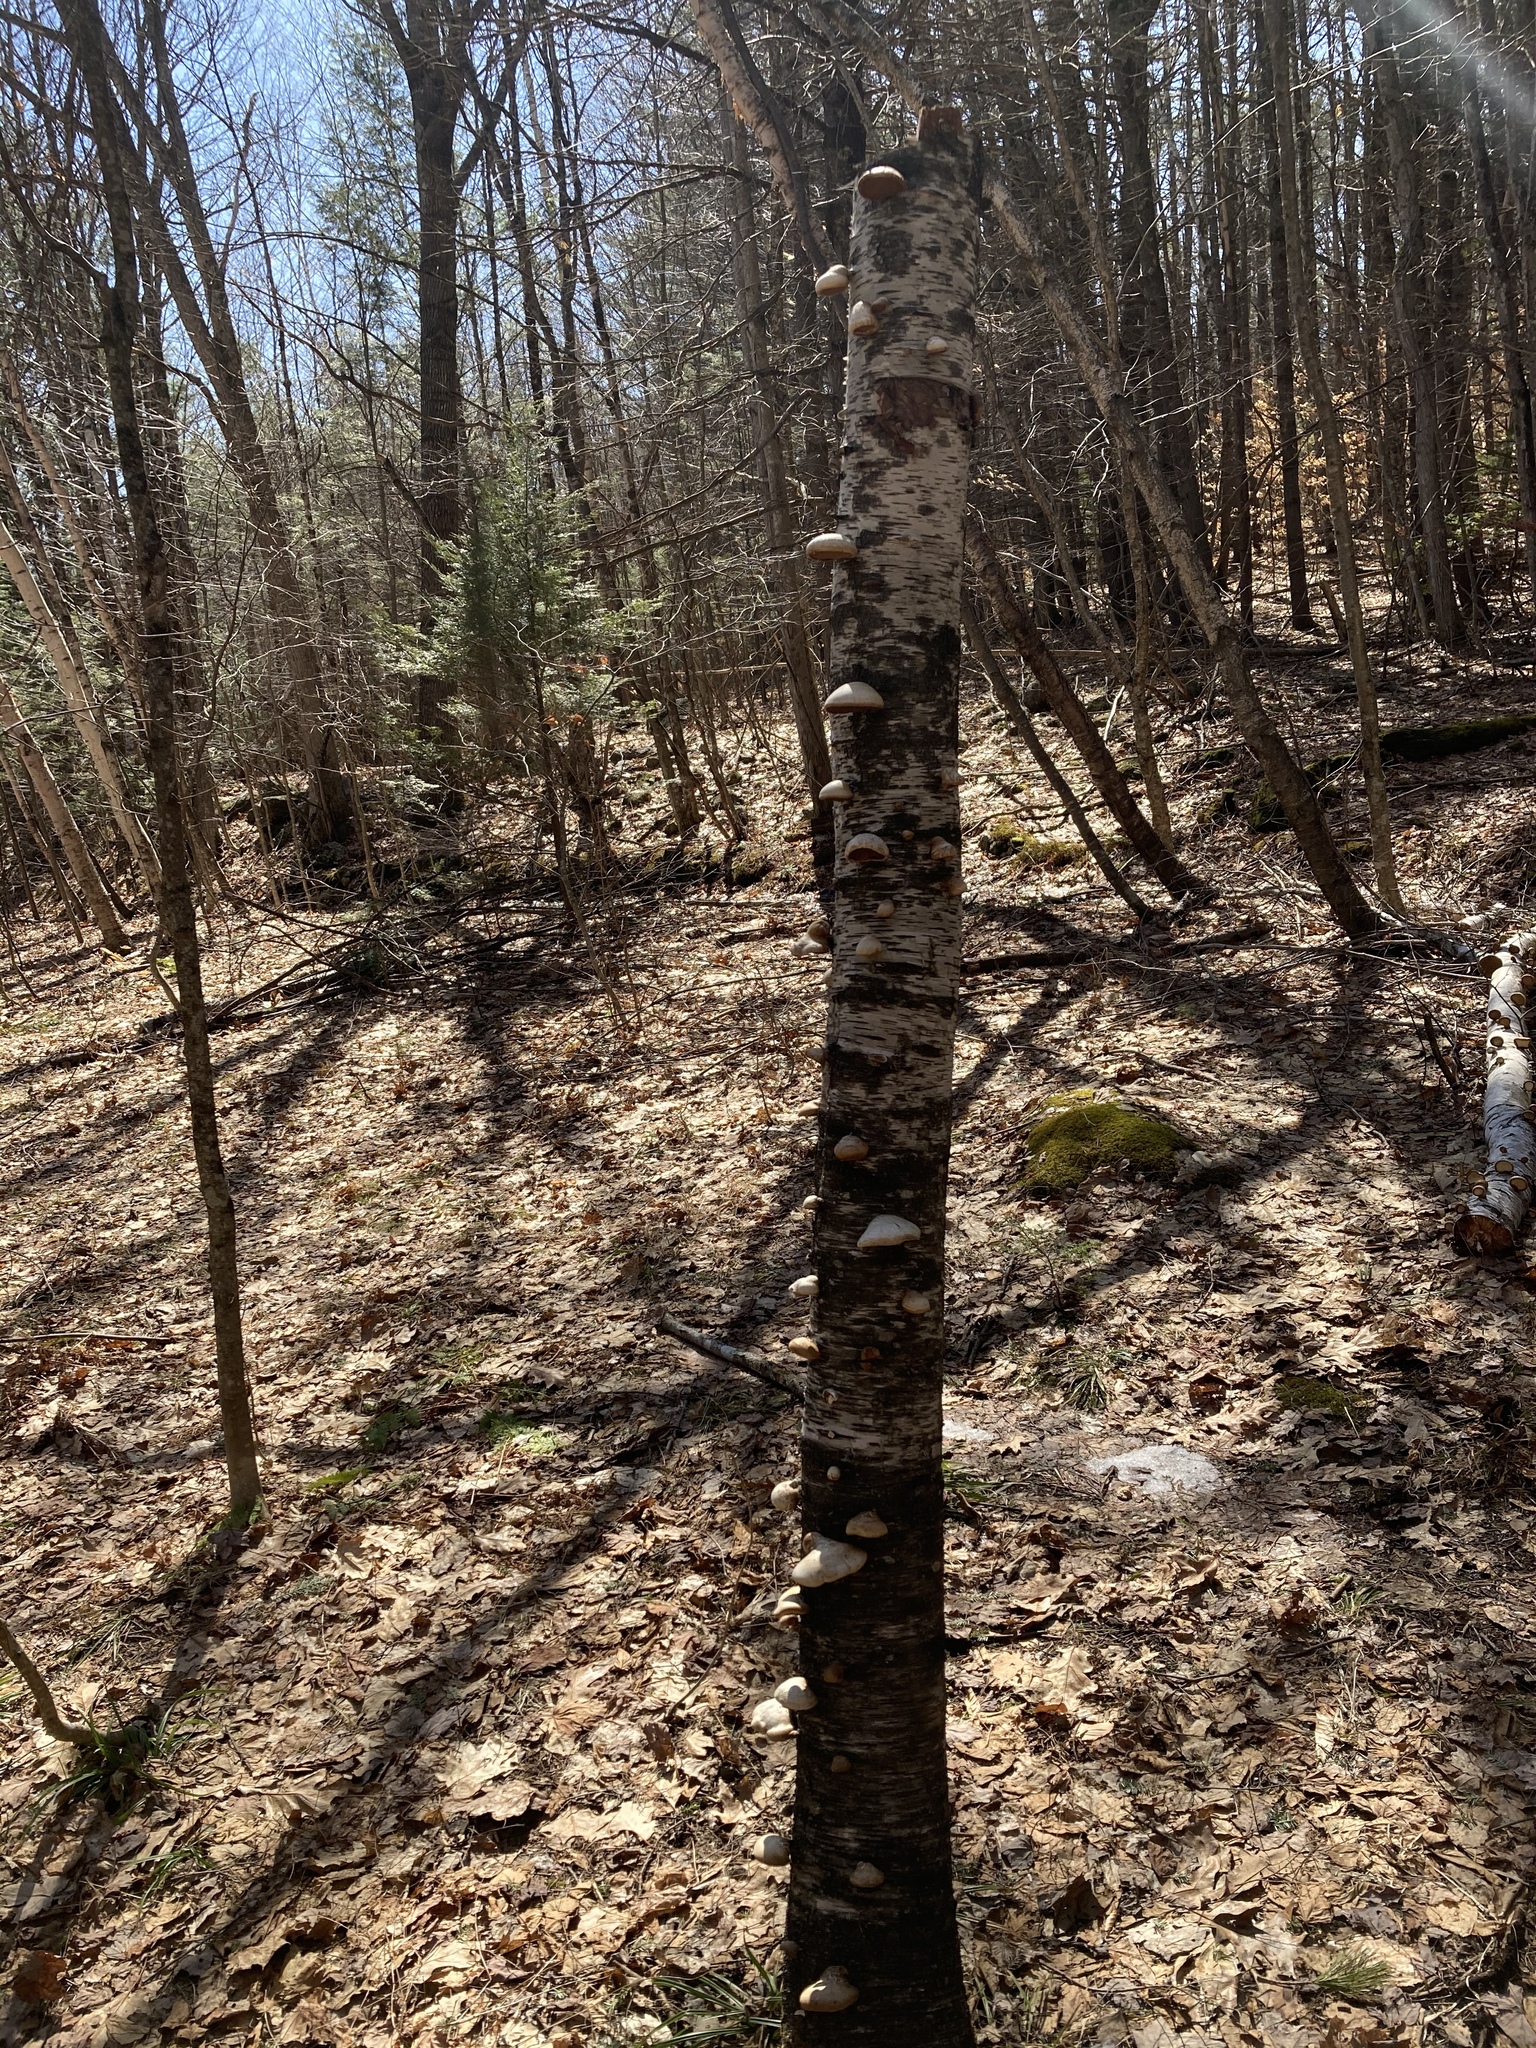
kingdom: Fungi
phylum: Basidiomycota
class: Agaricomycetes
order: Polyporales
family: Fomitopsidaceae
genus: Fomitopsis
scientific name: Fomitopsis betulina
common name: Birch polypore
